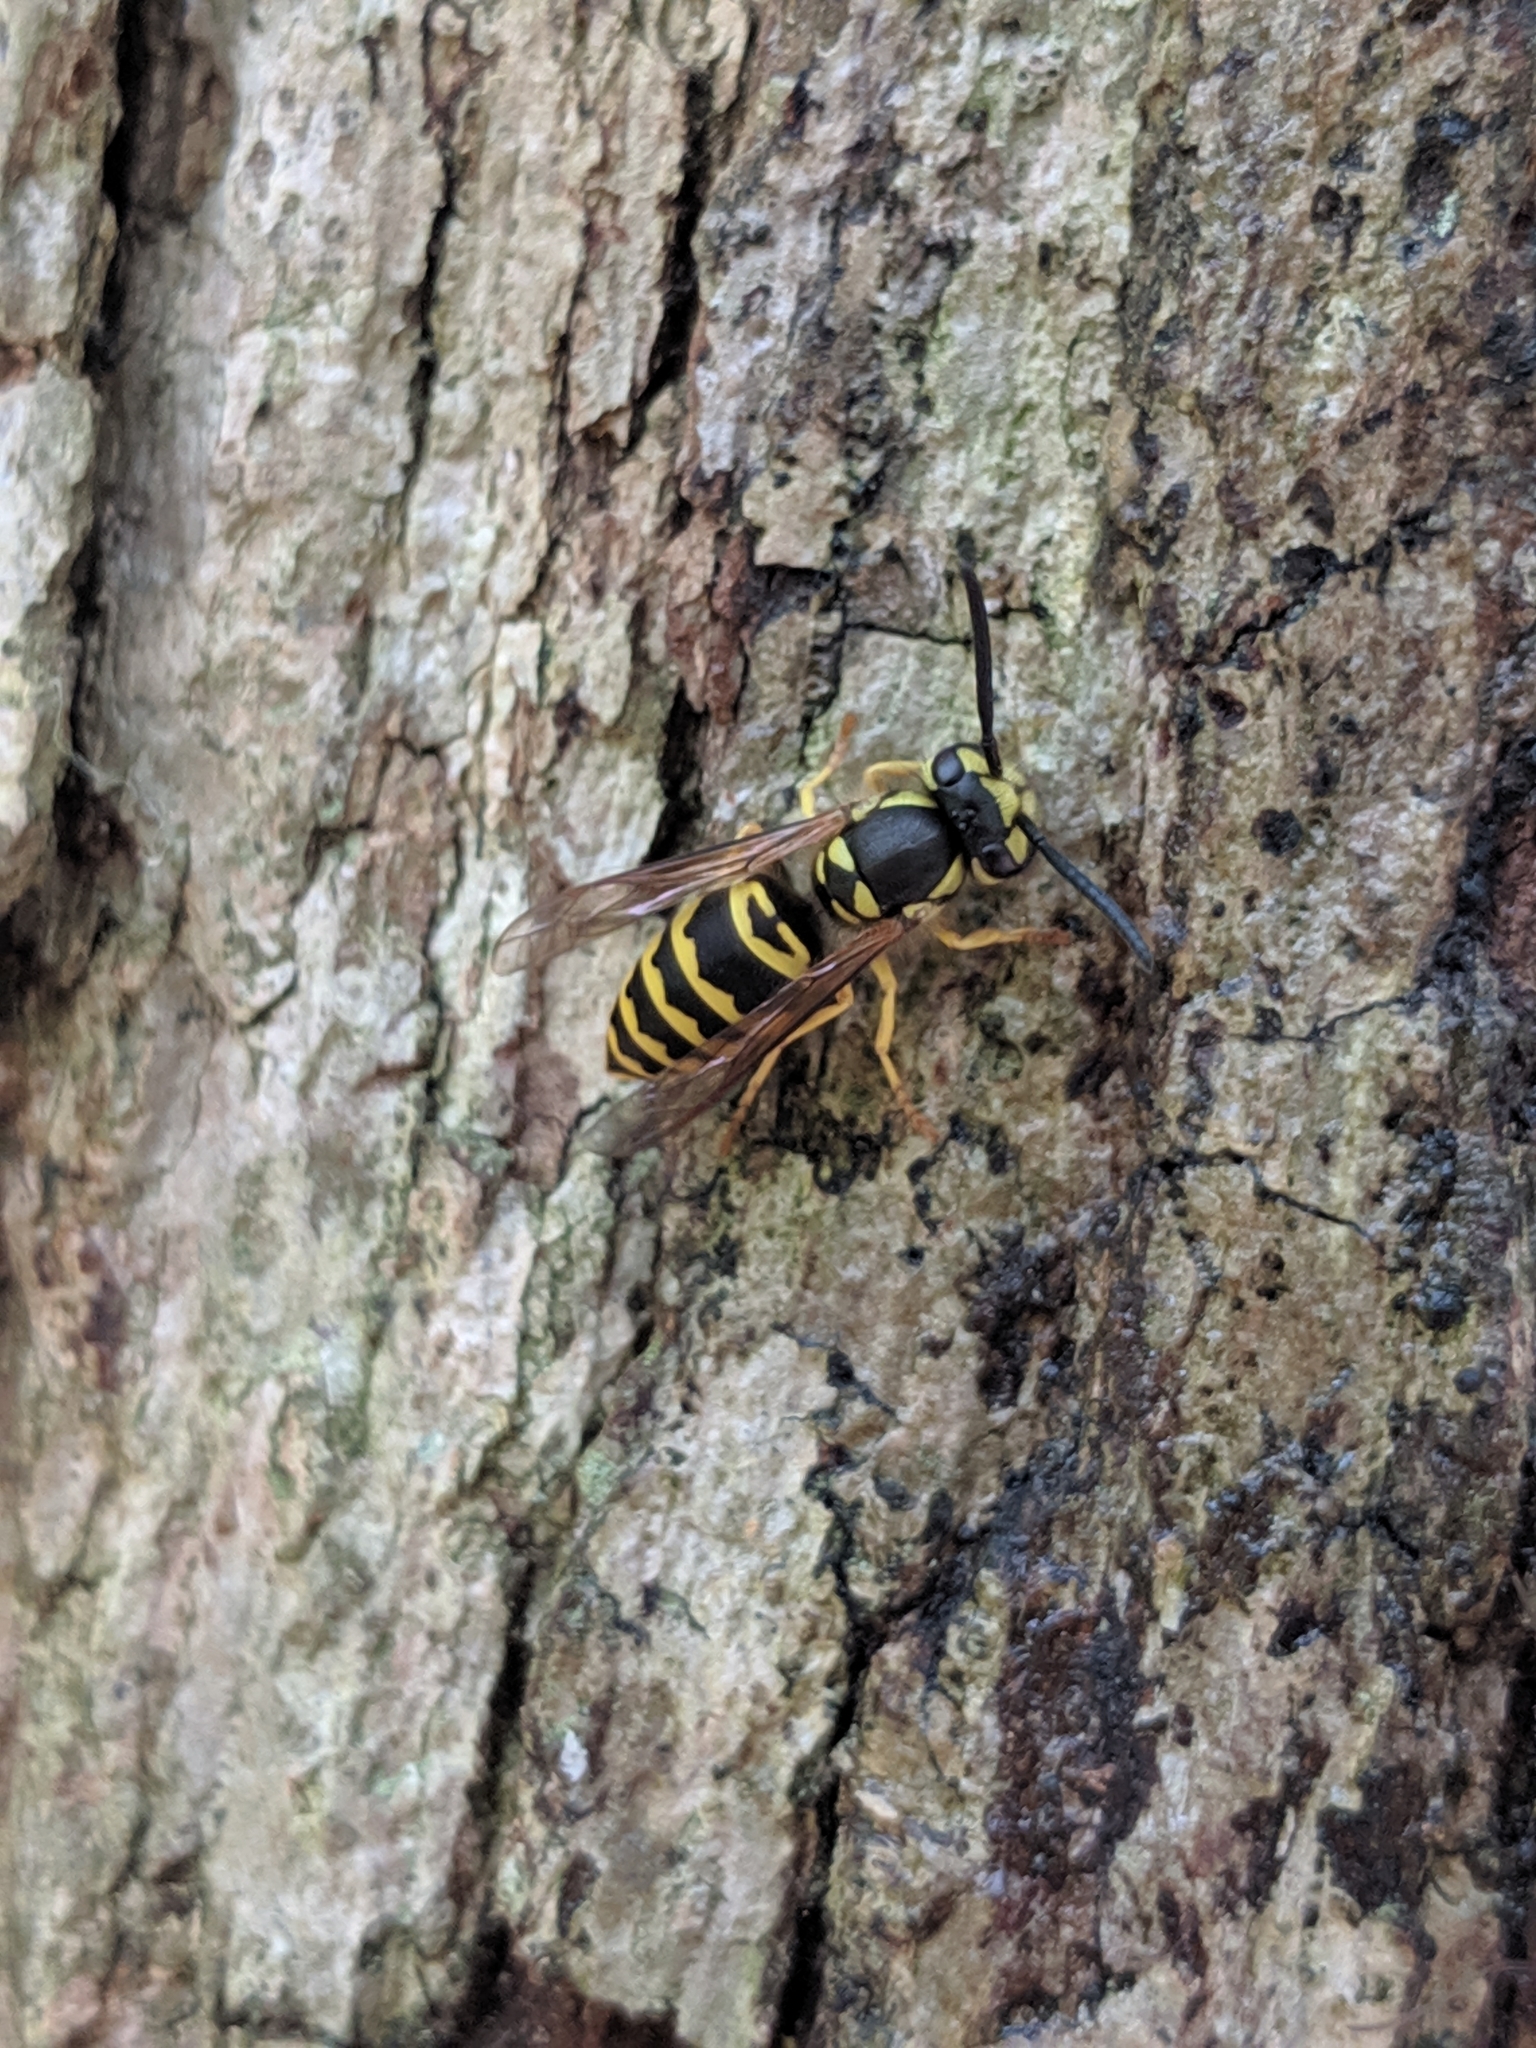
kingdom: Animalia
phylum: Arthropoda
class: Insecta
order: Hymenoptera
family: Vespidae
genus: Vespula
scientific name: Vespula maculifrons
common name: Eastern yellowjacket
